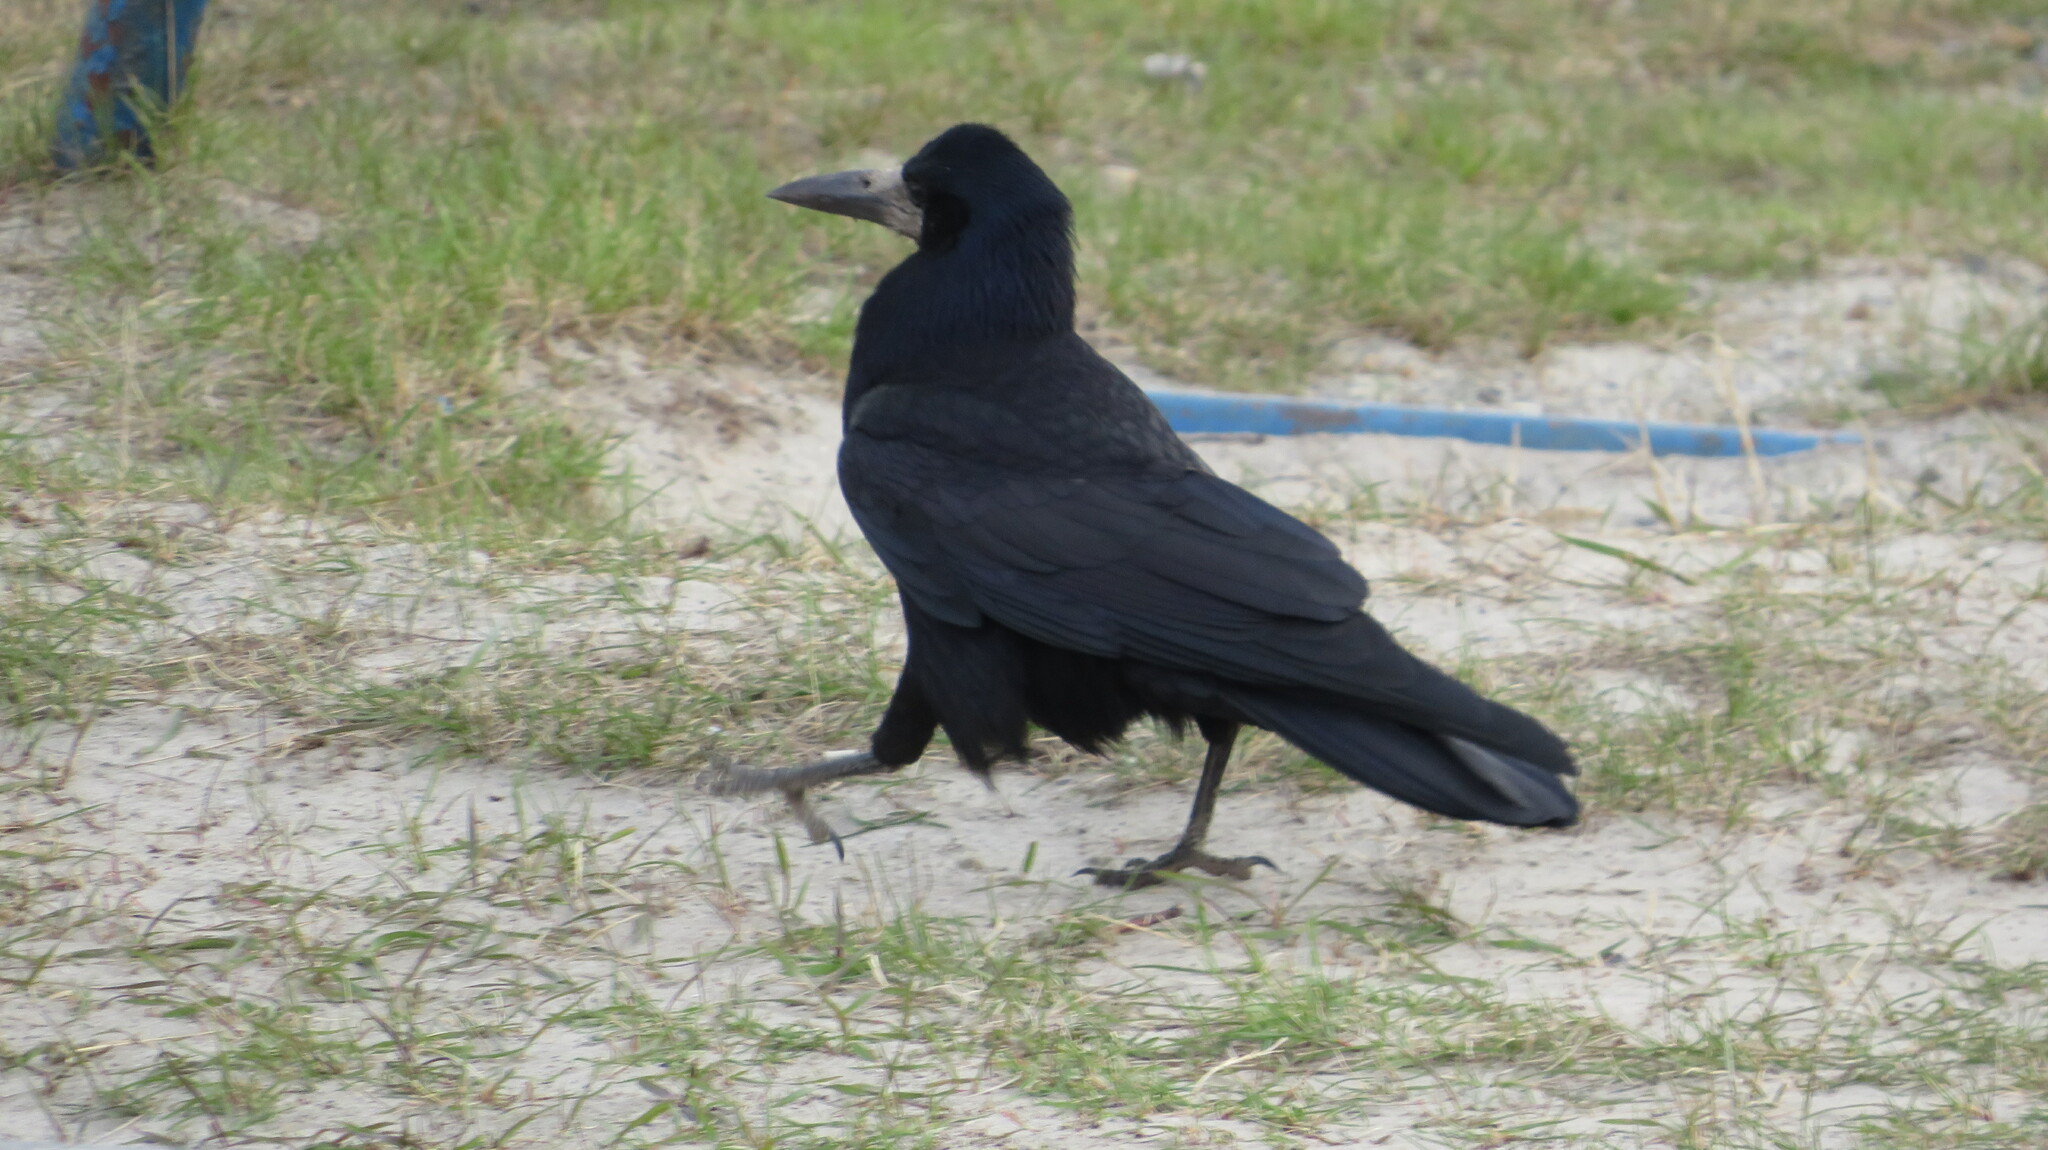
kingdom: Animalia
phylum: Chordata
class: Aves
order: Passeriformes
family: Corvidae
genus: Corvus
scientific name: Corvus frugilegus
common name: Rook
